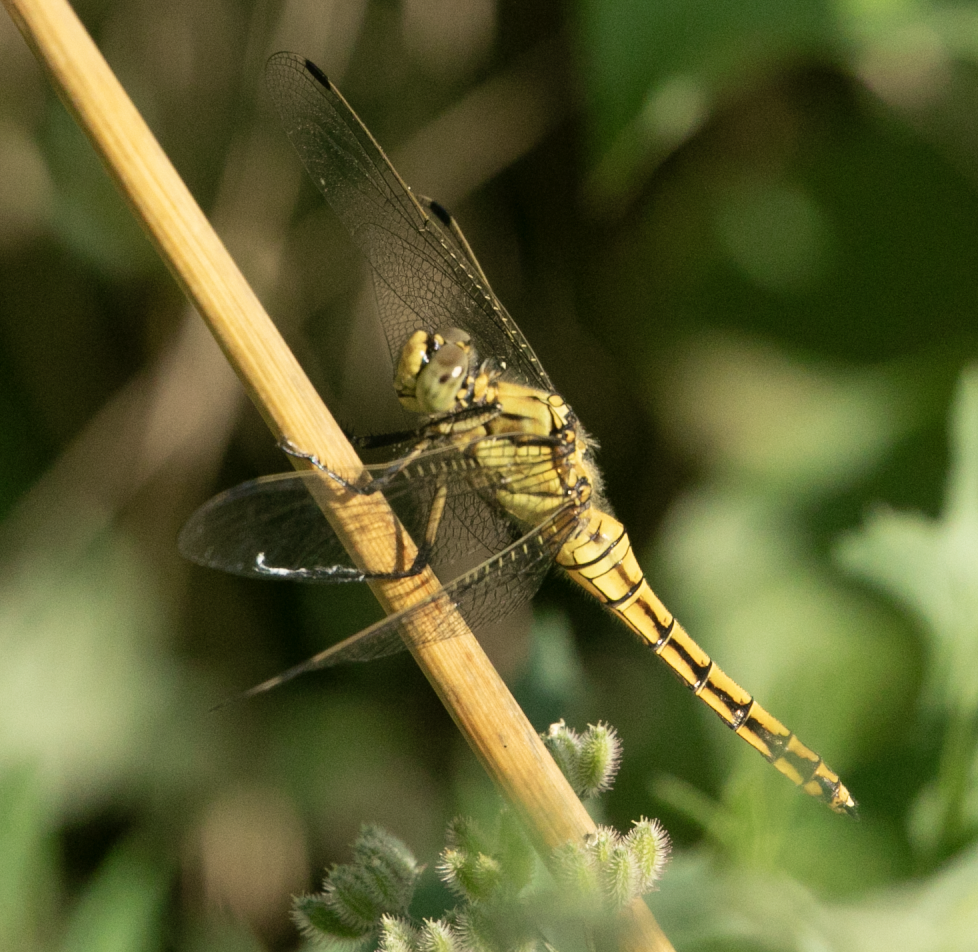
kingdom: Animalia
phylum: Arthropoda
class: Insecta
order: Odonata
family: Libellulidae
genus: Orthetrum
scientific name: Orthetrum cancellatum
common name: Black-tailed skimmer
